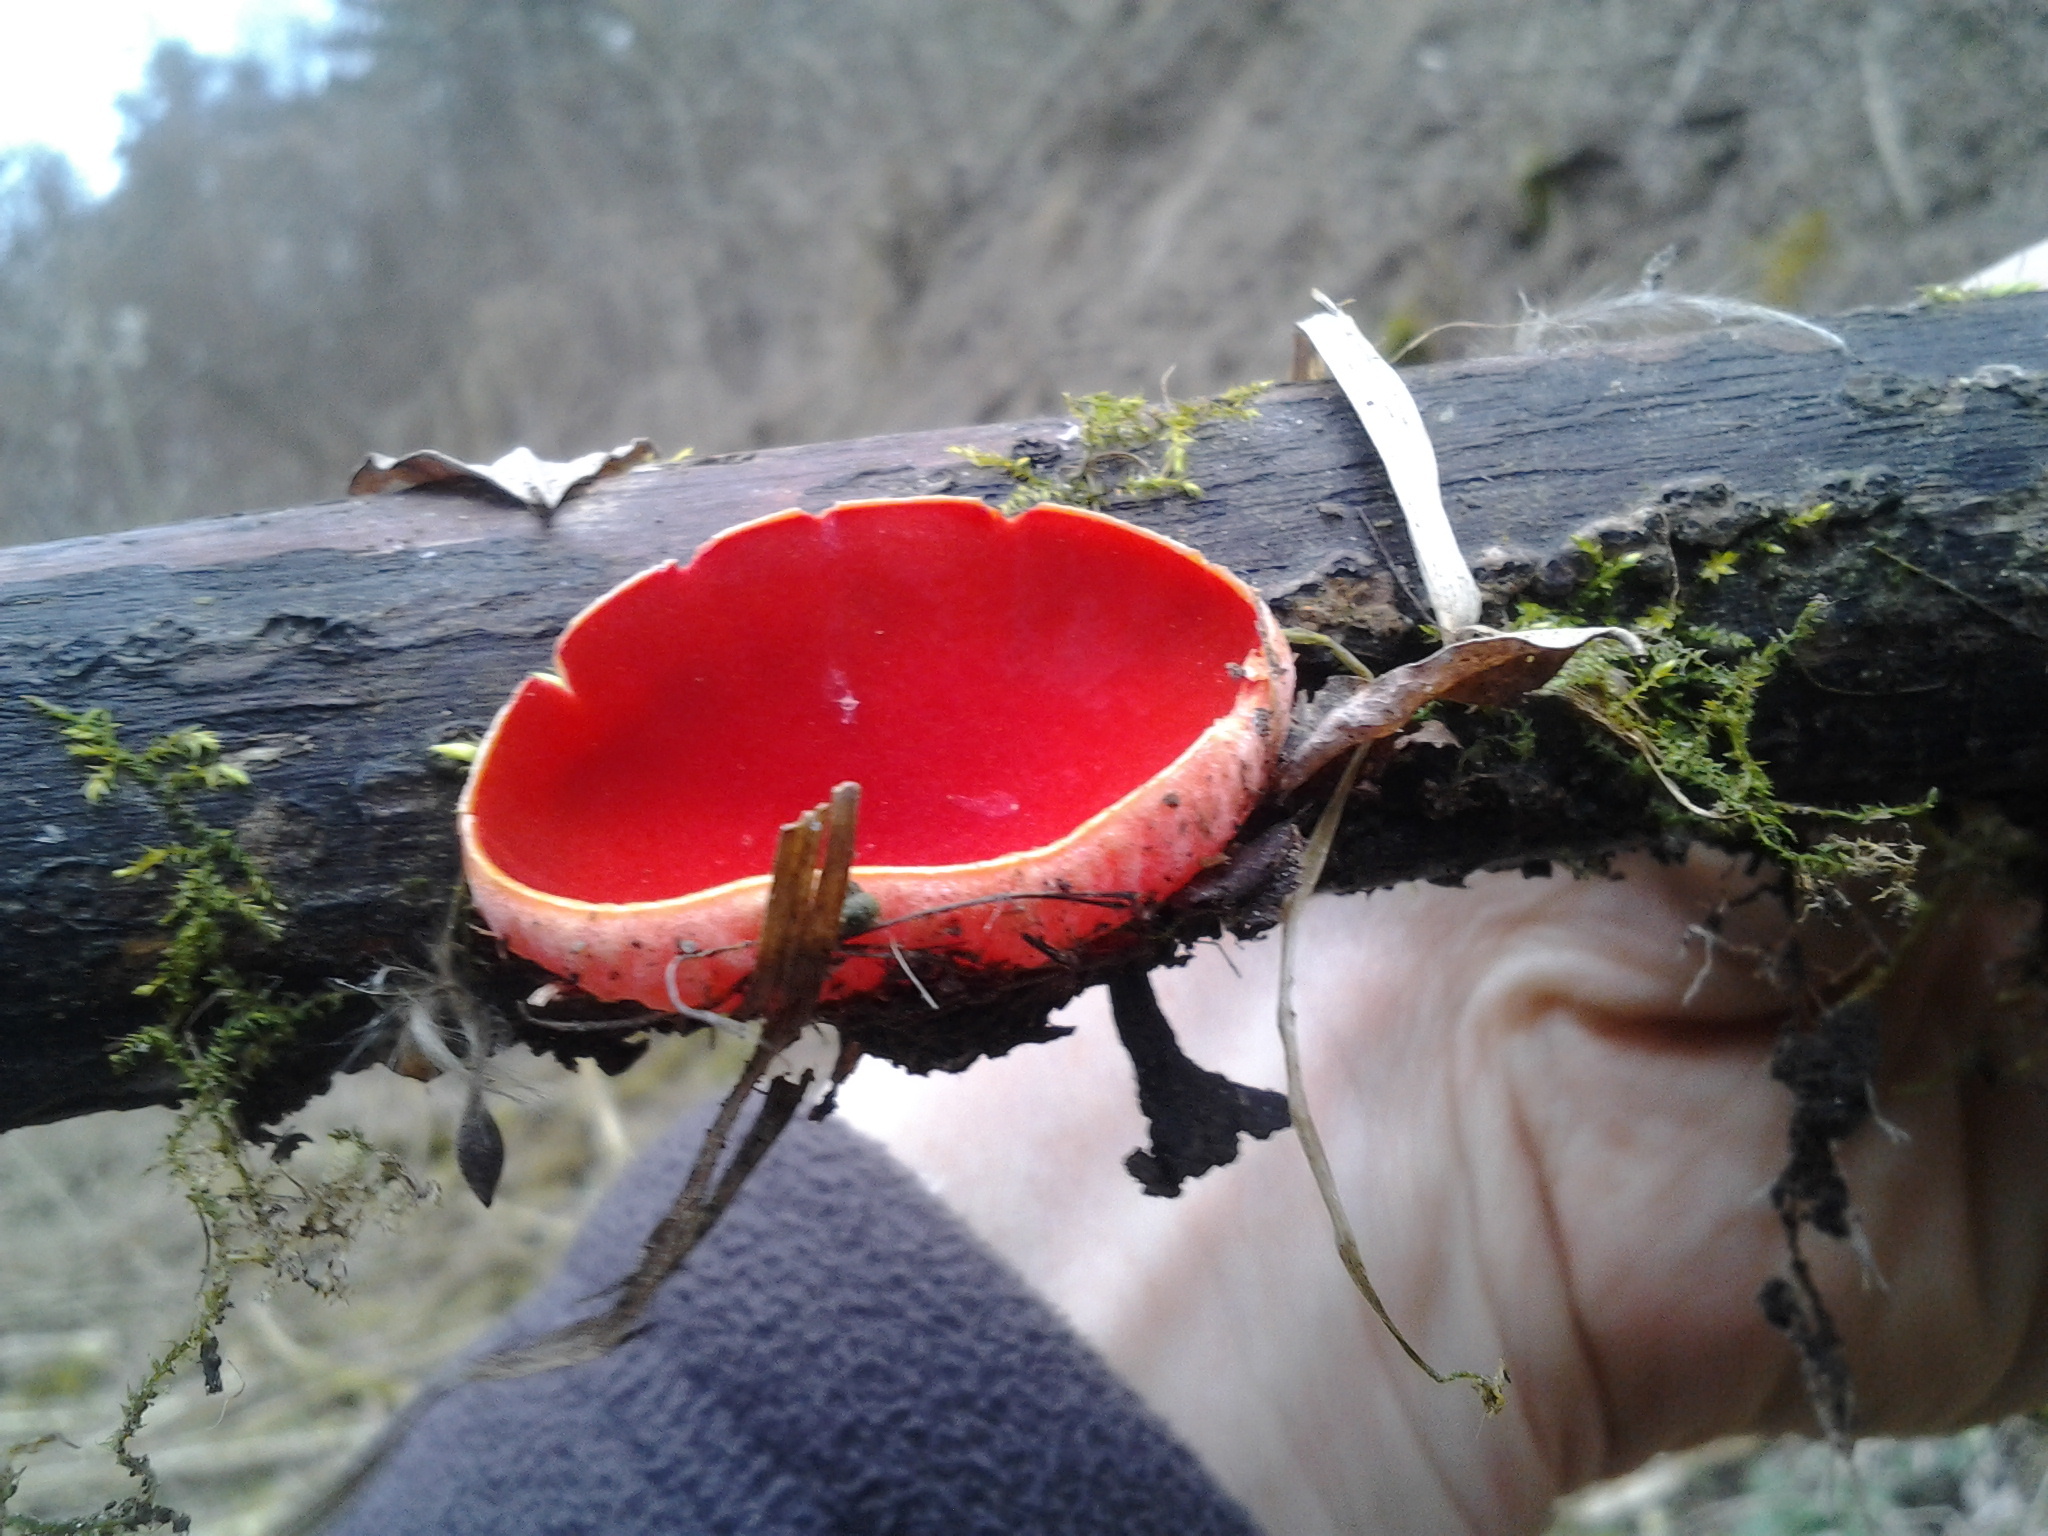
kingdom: Fungi
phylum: Ascomycota
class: Pezizomycetes
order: Pezizales
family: Sarcoscyphaceae
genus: Sarcoscypha
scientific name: Sarcoscypha
